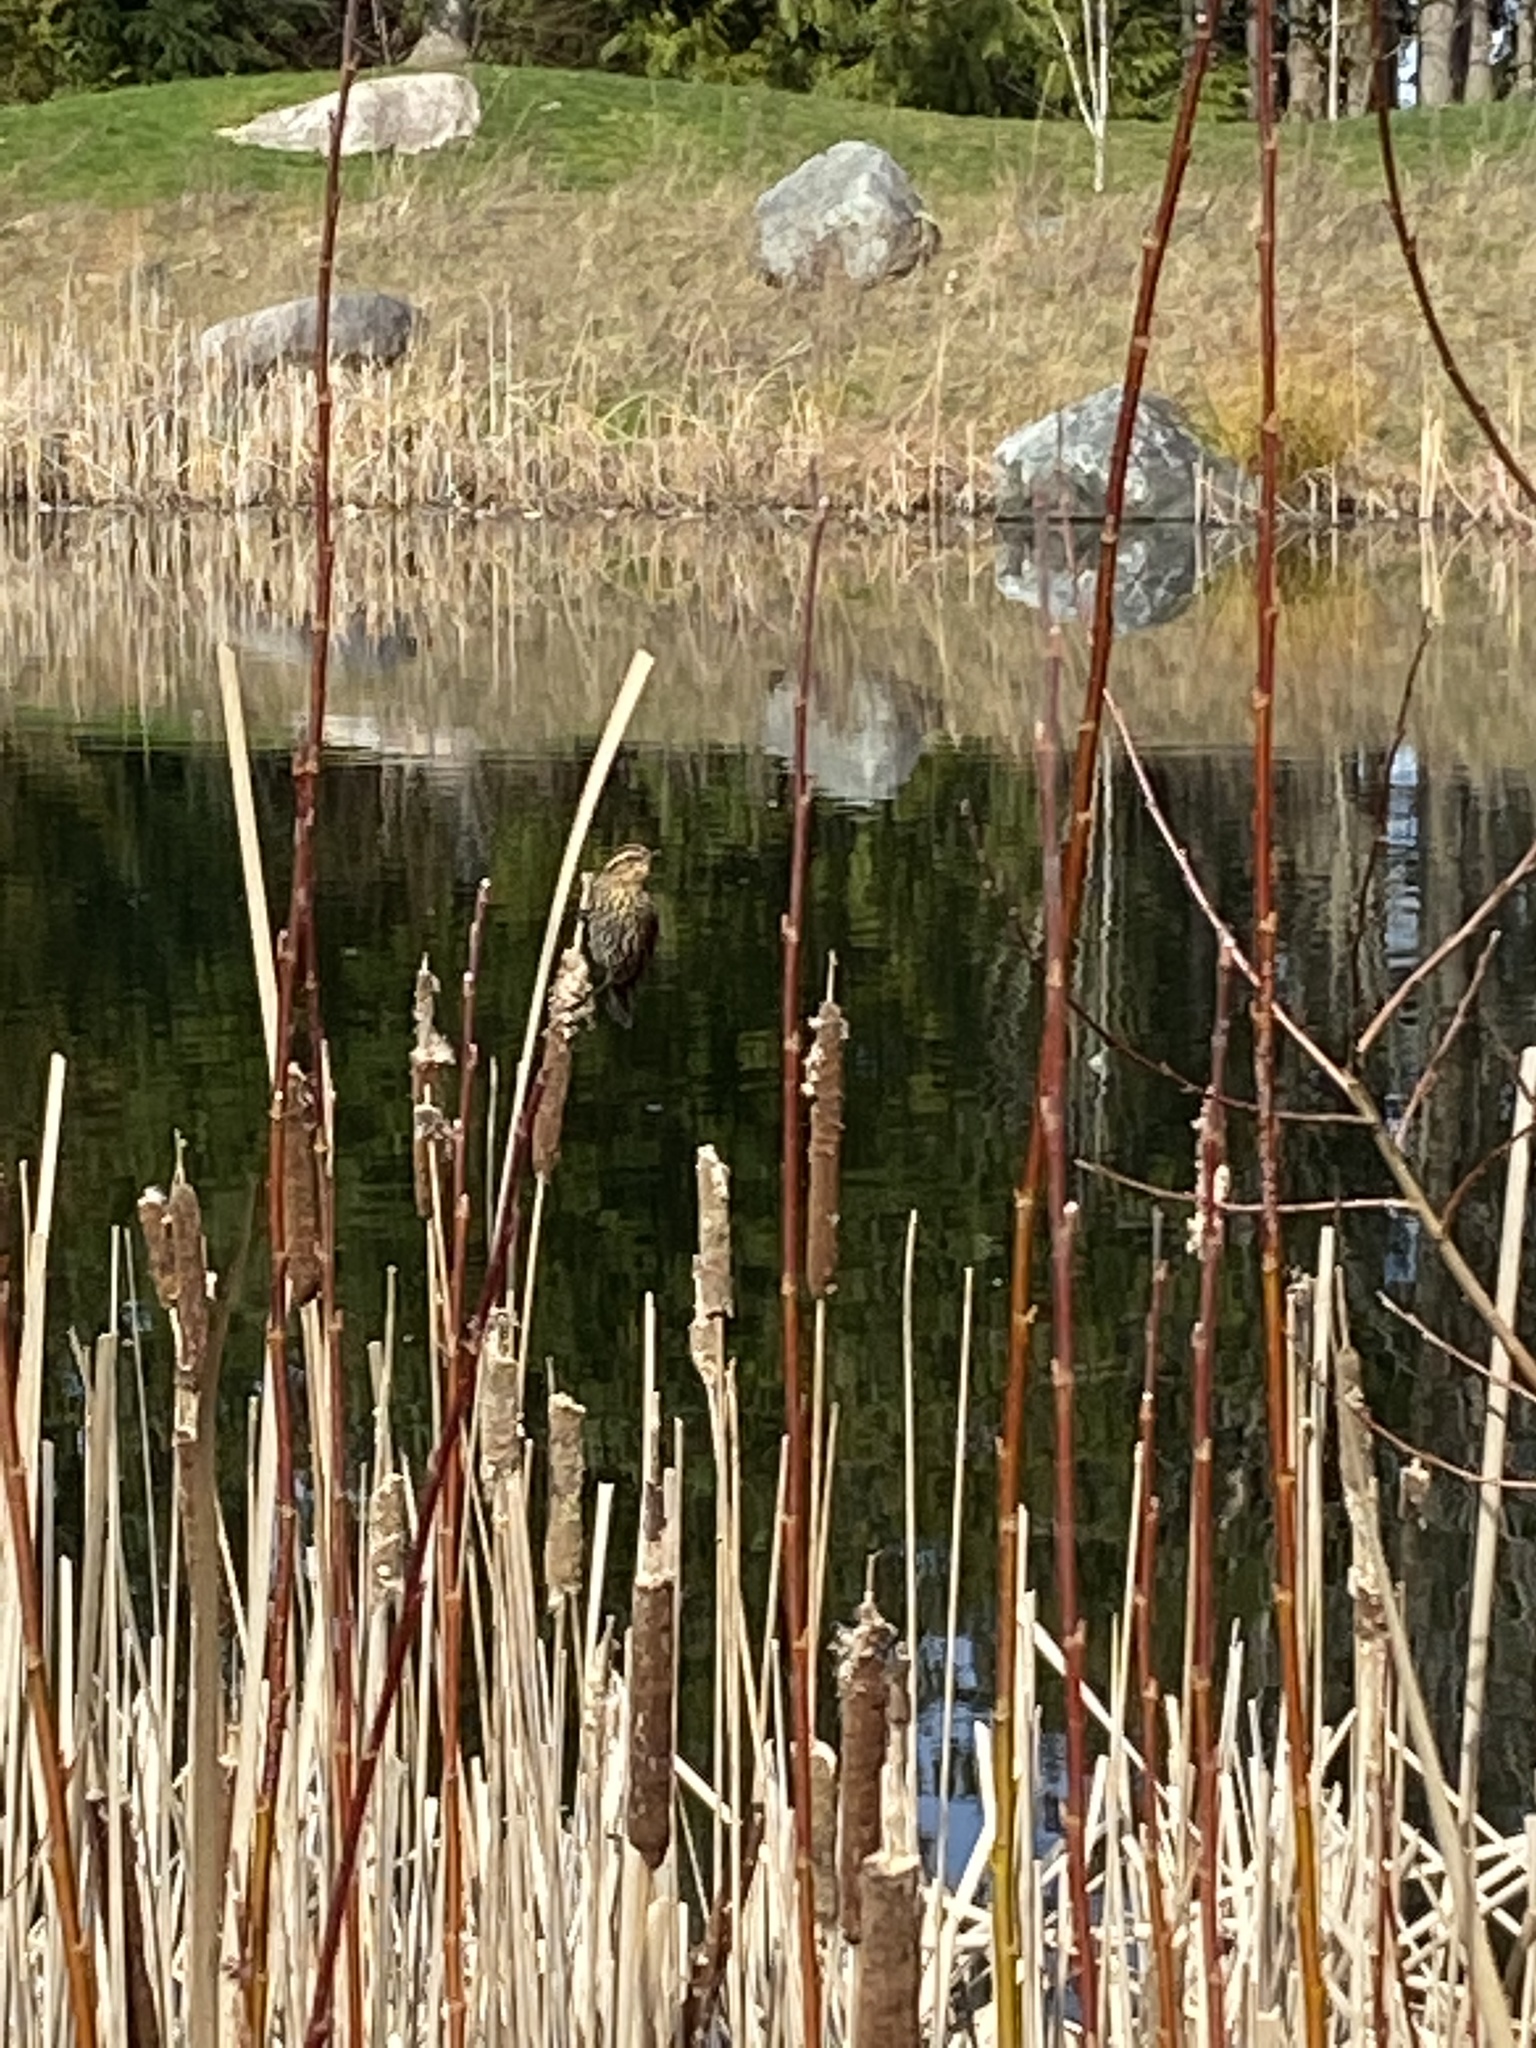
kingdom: Animalia
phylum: Chordata
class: Aves
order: Passeriformes
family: Icteridae
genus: Agelaius
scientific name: Agelaius phoeniceus
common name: Red-winged blackbird
